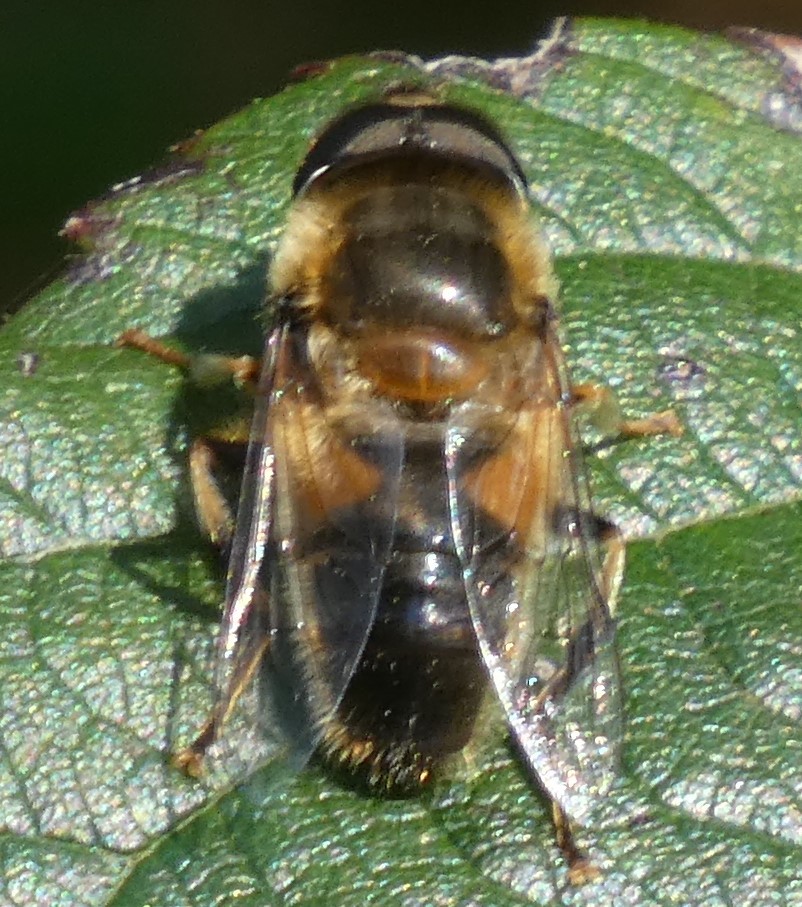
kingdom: Animalia
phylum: Arthropoda
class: Insecta
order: Diptera
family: Syrphidae
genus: Eristalis
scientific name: Eristalis pertinax
